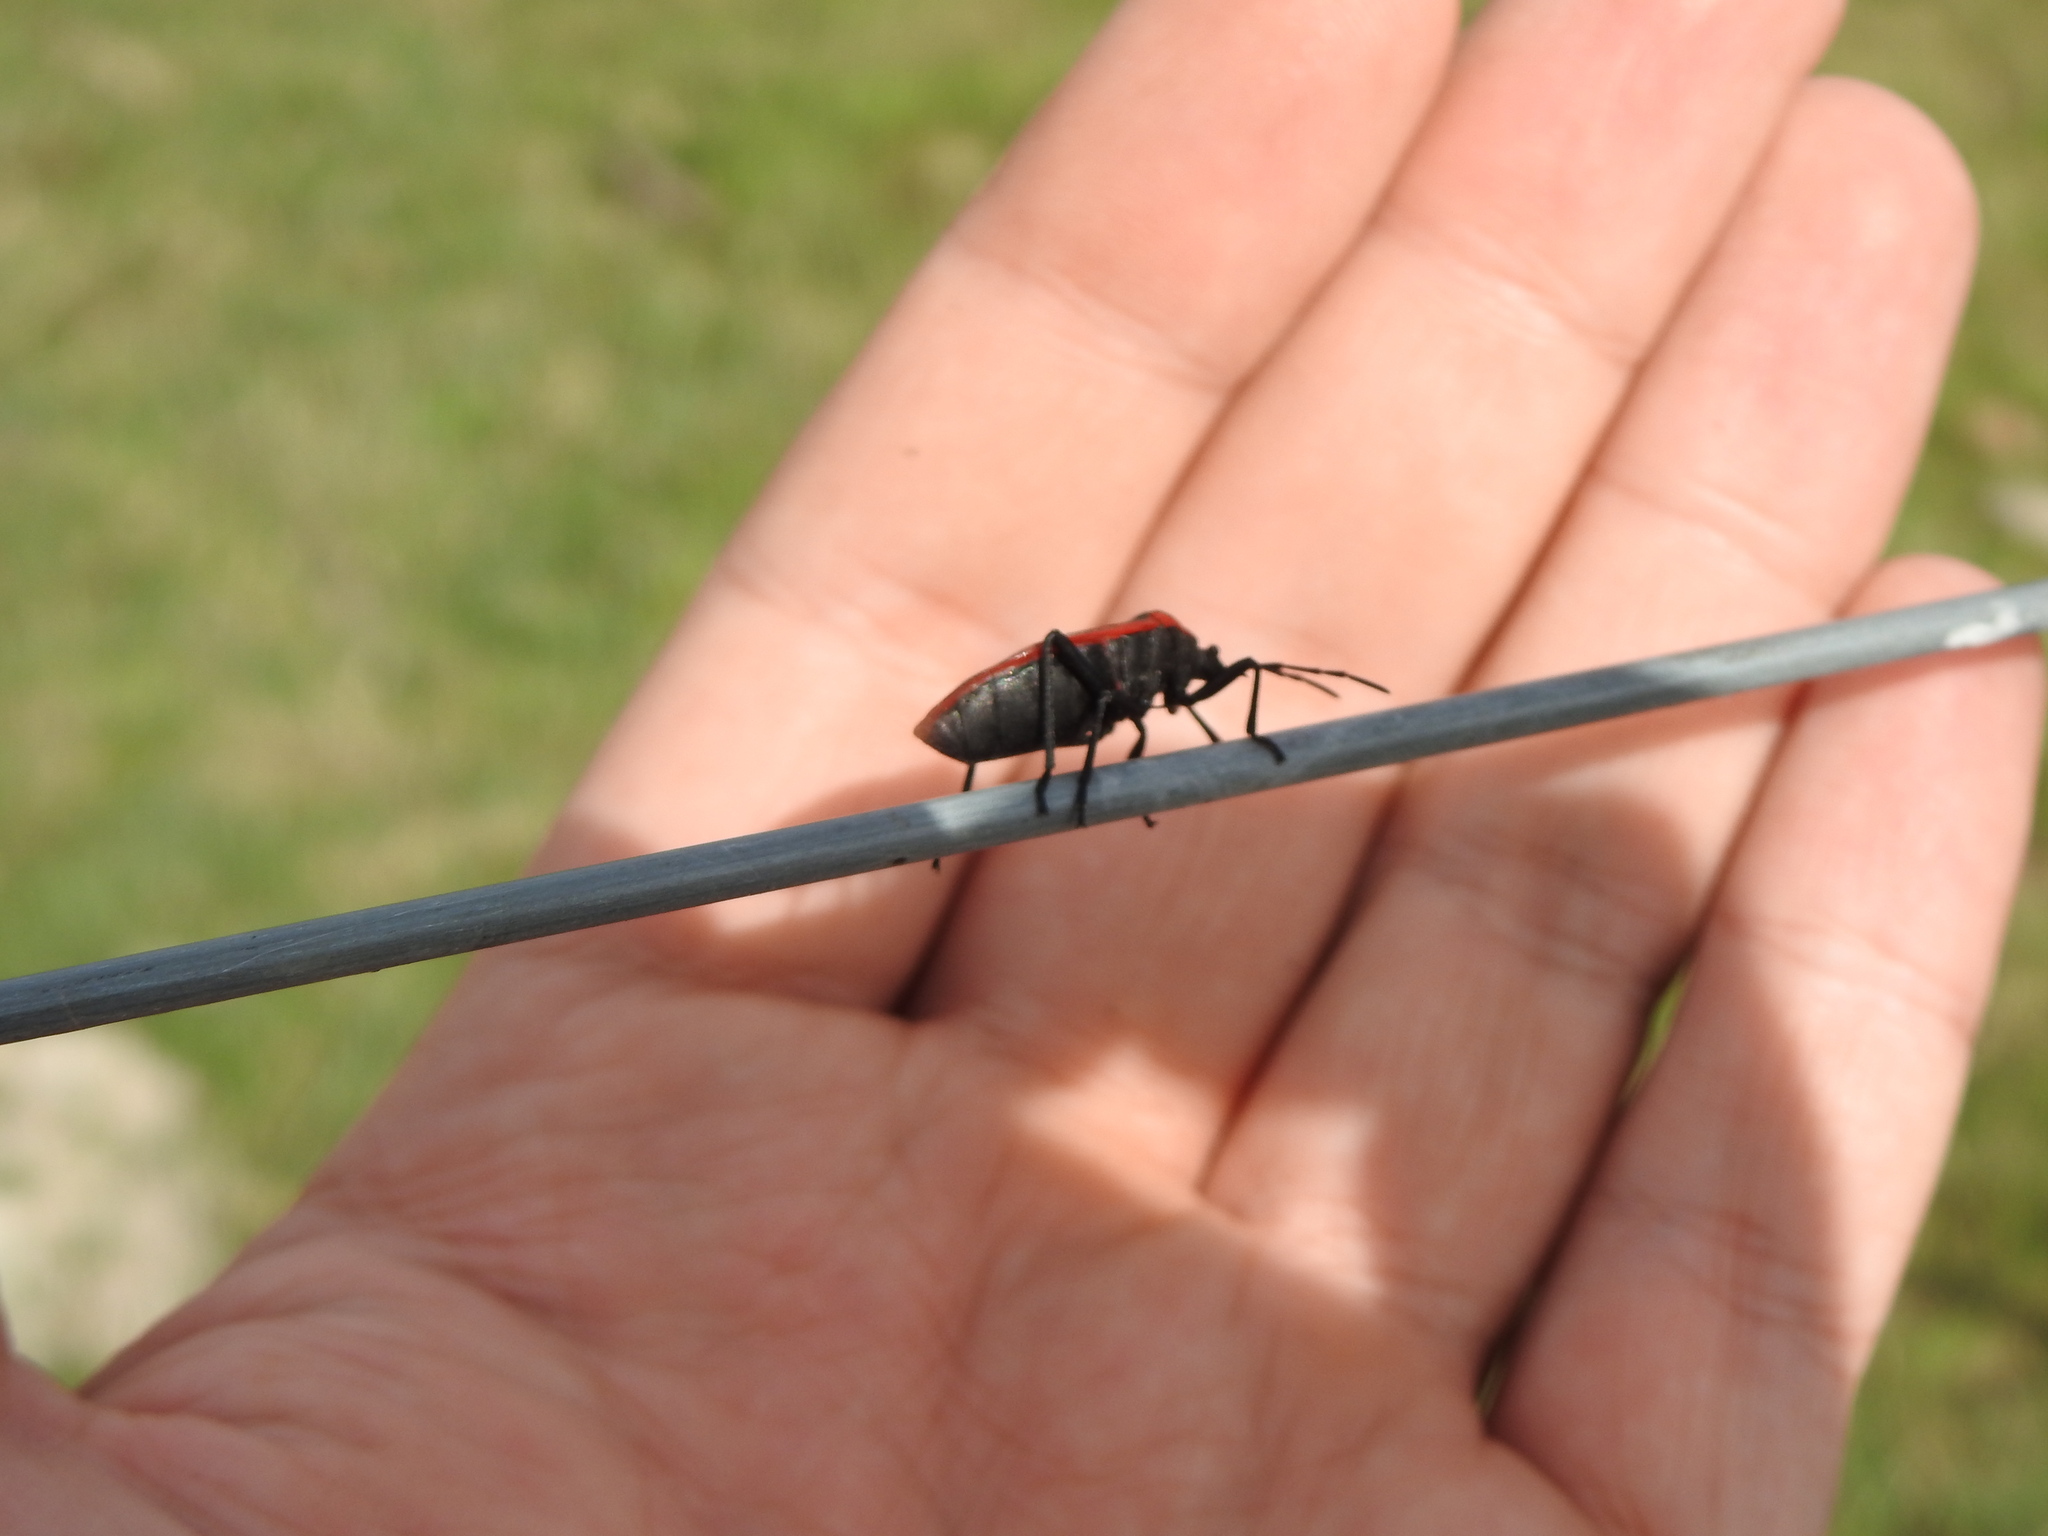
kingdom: Animalia
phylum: Arthropoda
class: Insecta
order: Hemiptera
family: Largidae
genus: Largus
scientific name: Largus rufipennis
